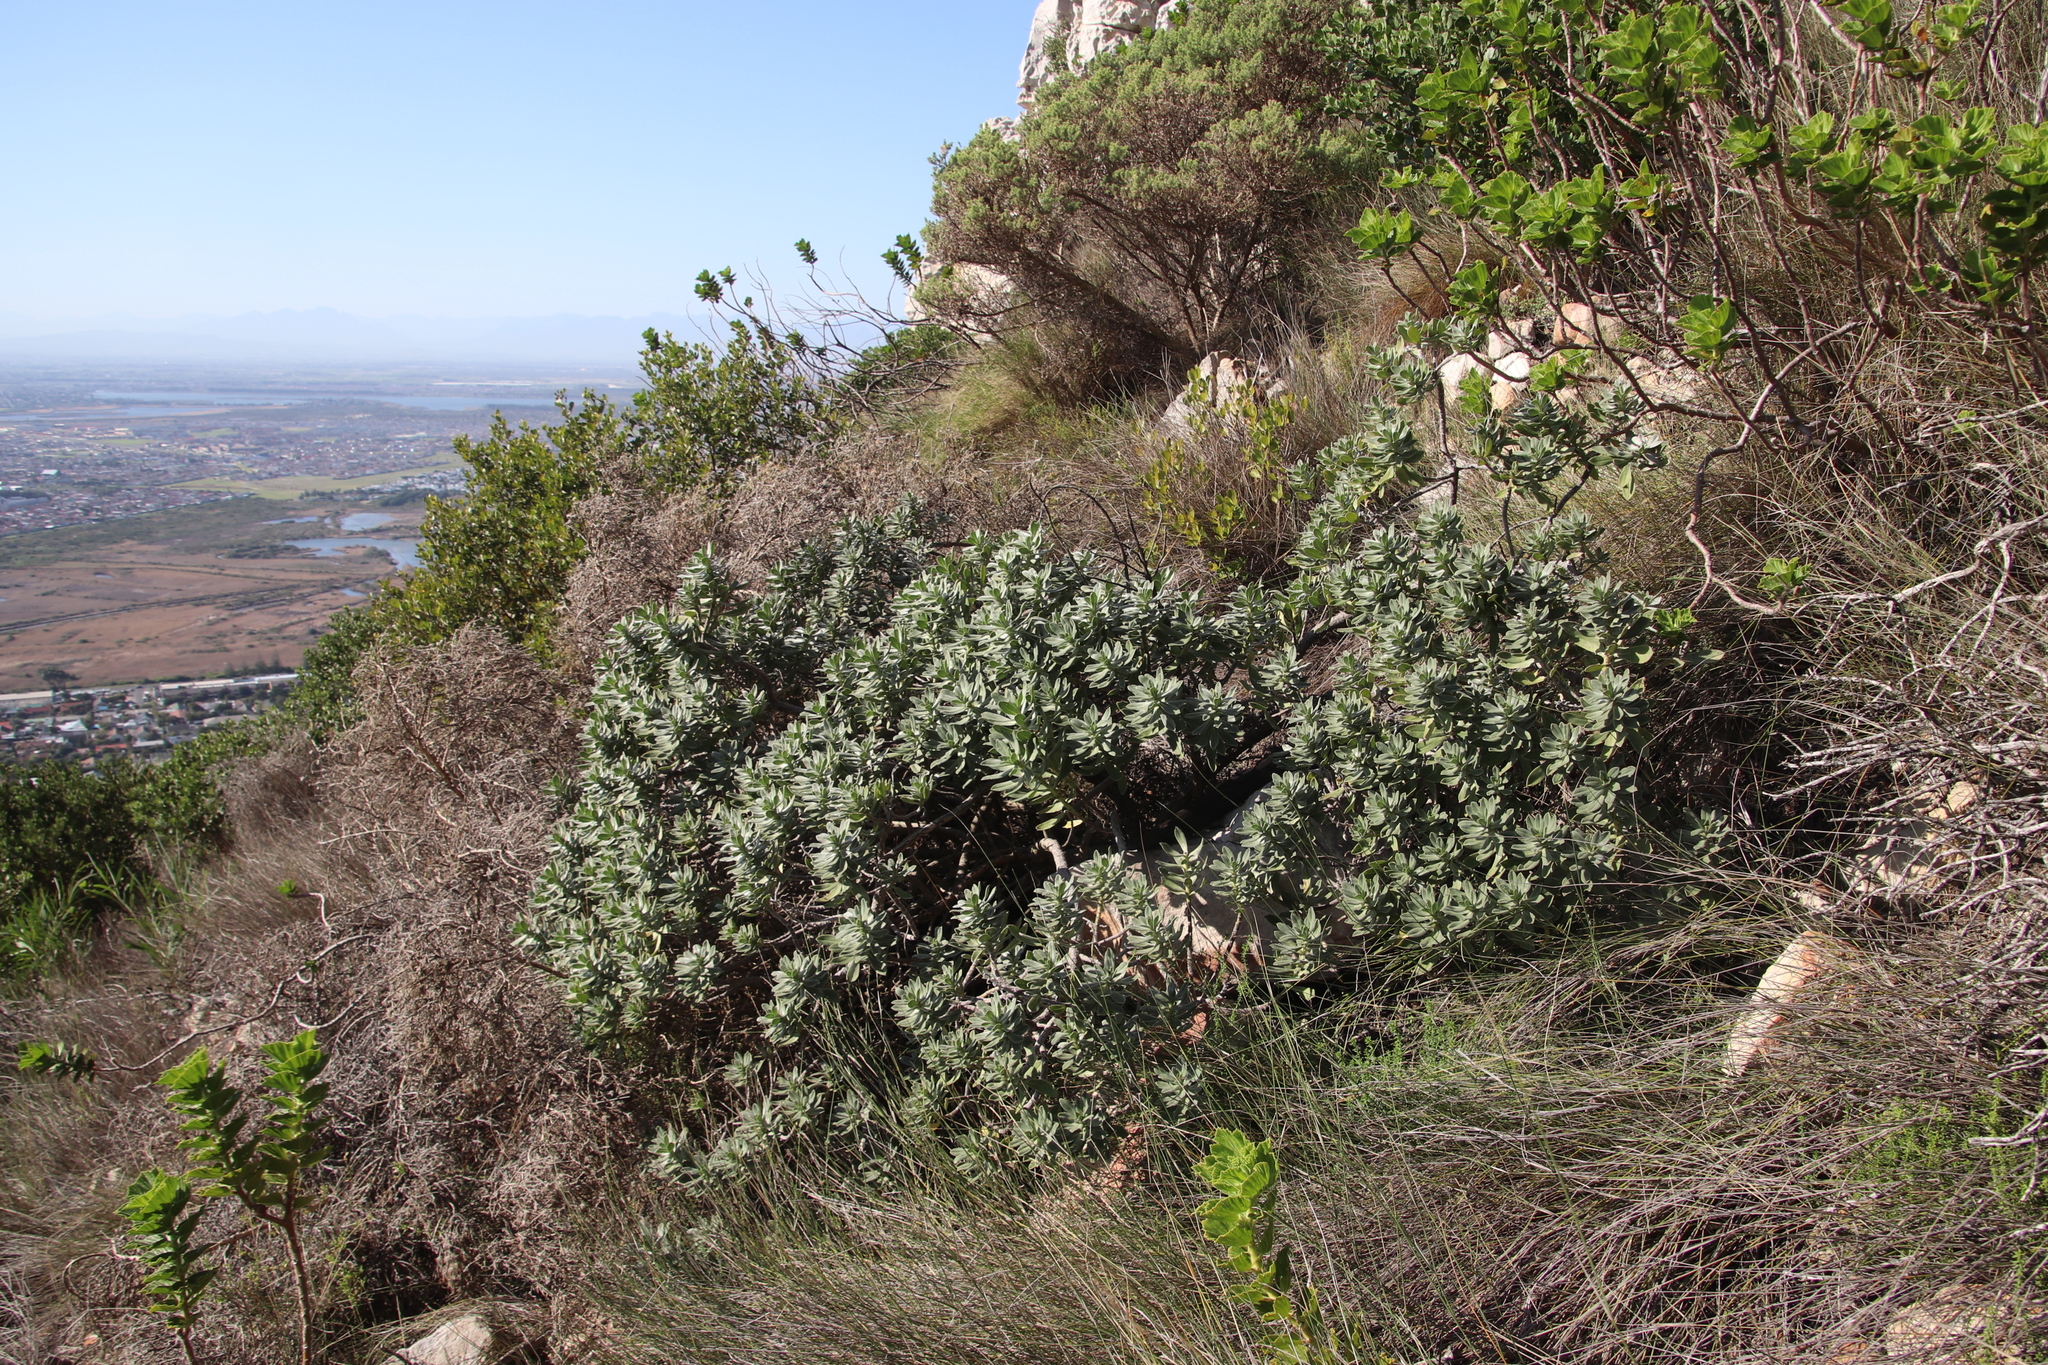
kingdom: Plantae
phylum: Tracheophyta
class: Magnoliopsida
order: Boraginales
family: Boraginaceae
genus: Lobostemon
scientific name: Lobostemon montanus
